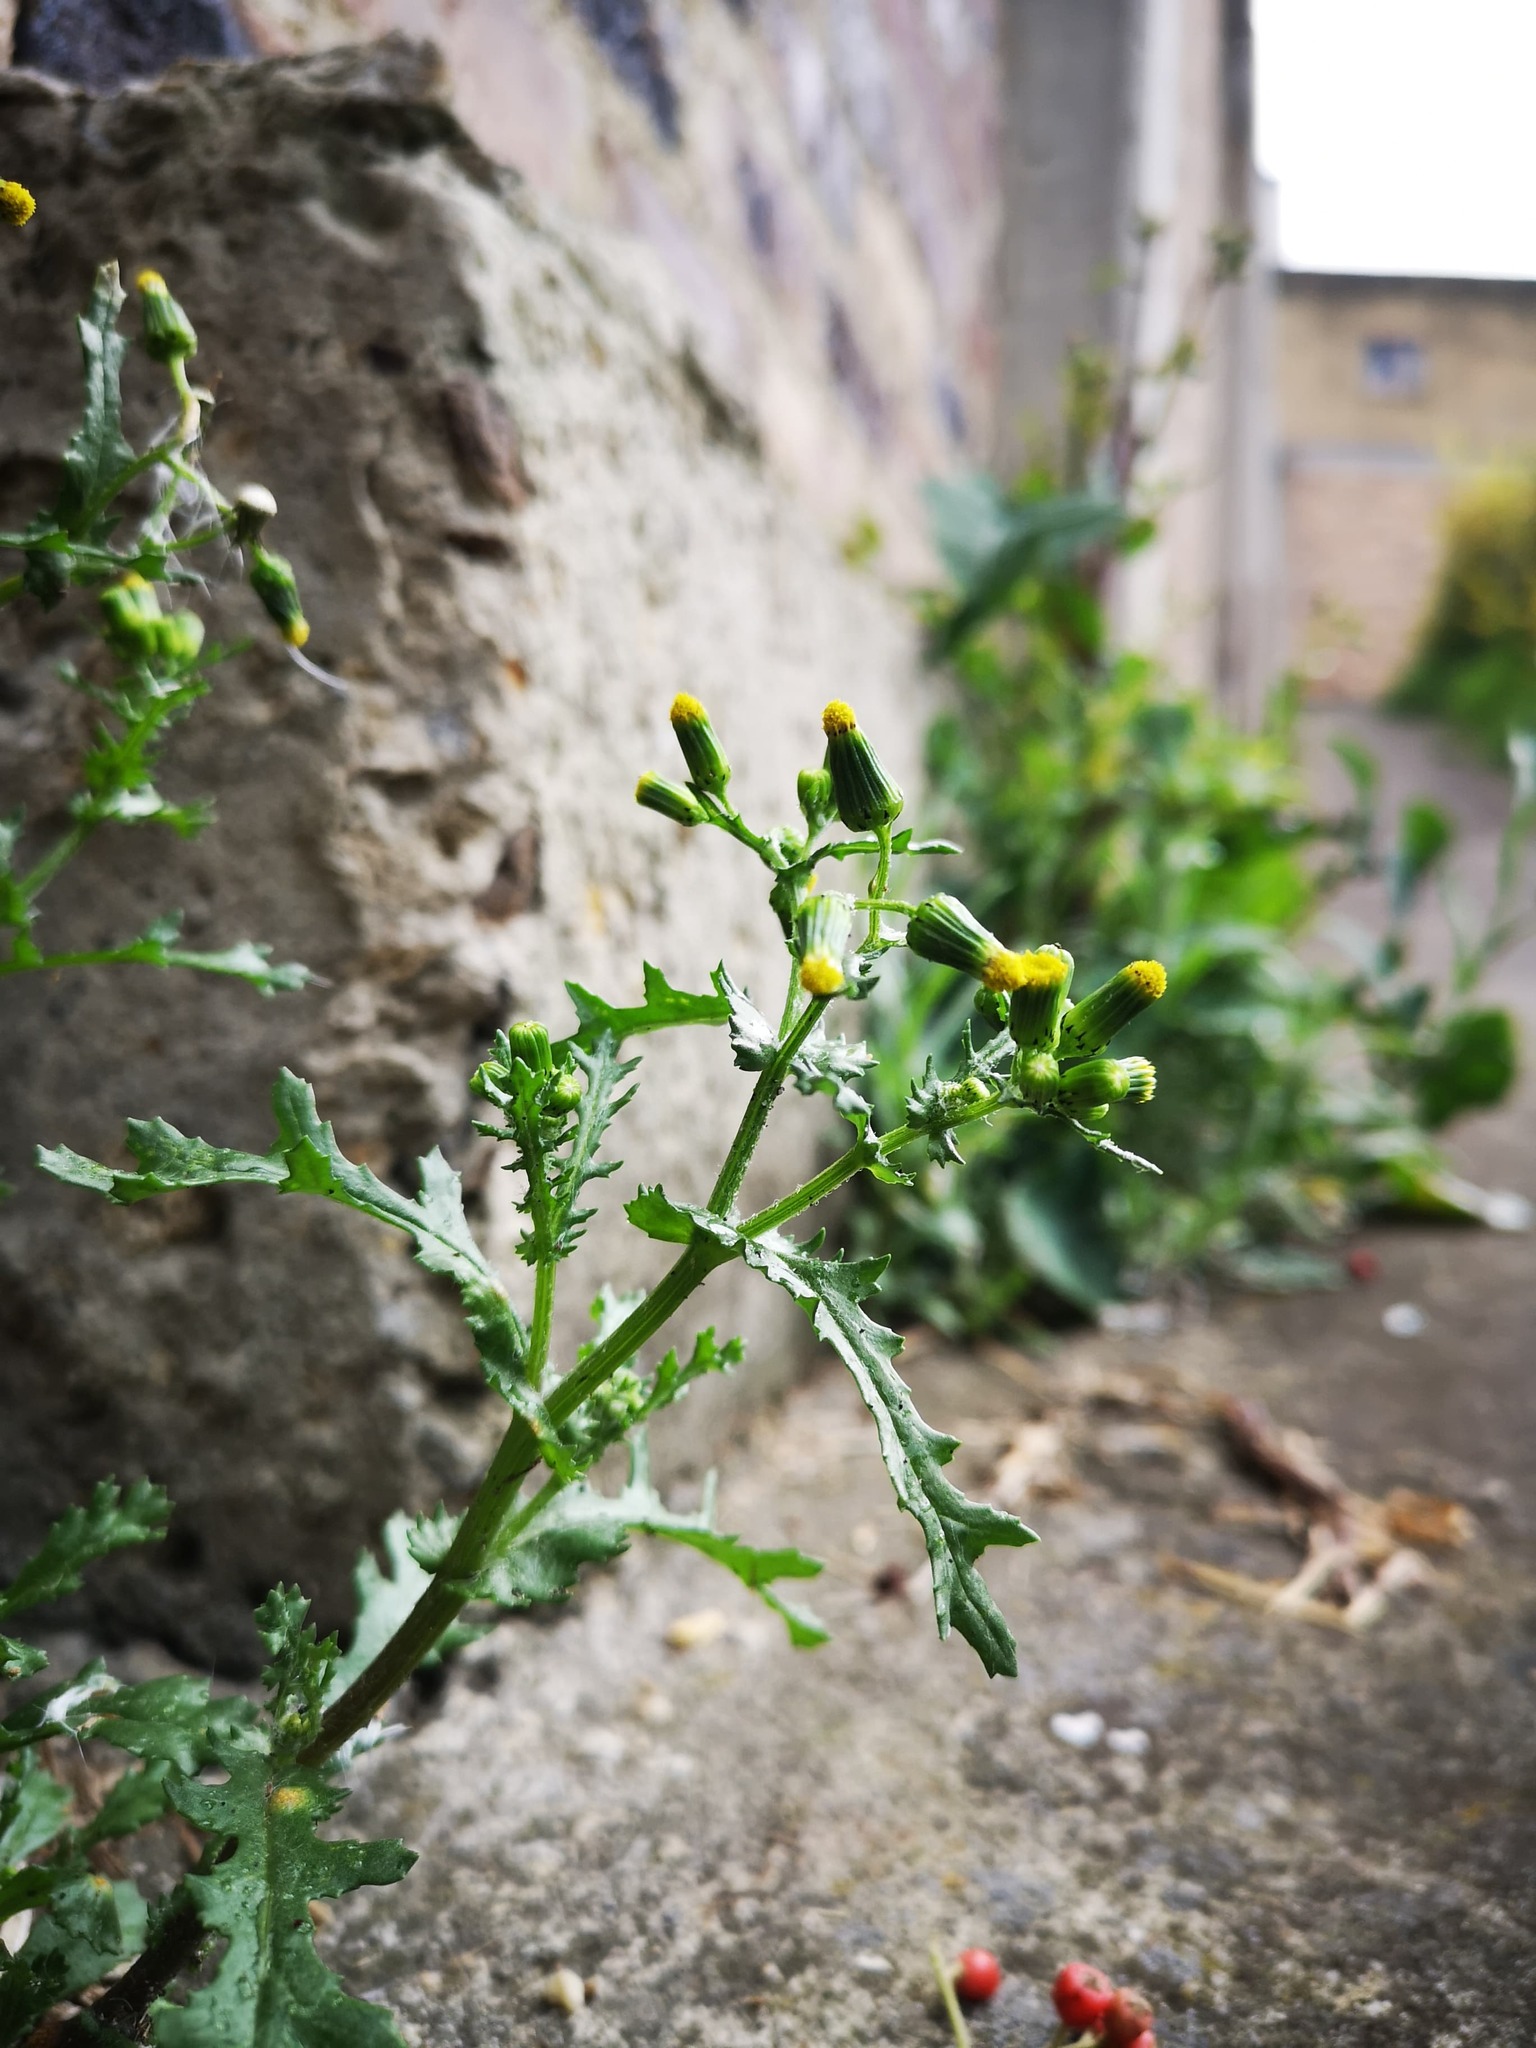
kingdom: Plantae
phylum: Tracheophyta
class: Magnoliopsida
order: Asterales
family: Asteraceae
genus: Senecio
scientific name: Senecio vulgaris
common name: Old-man-in-the-spring
